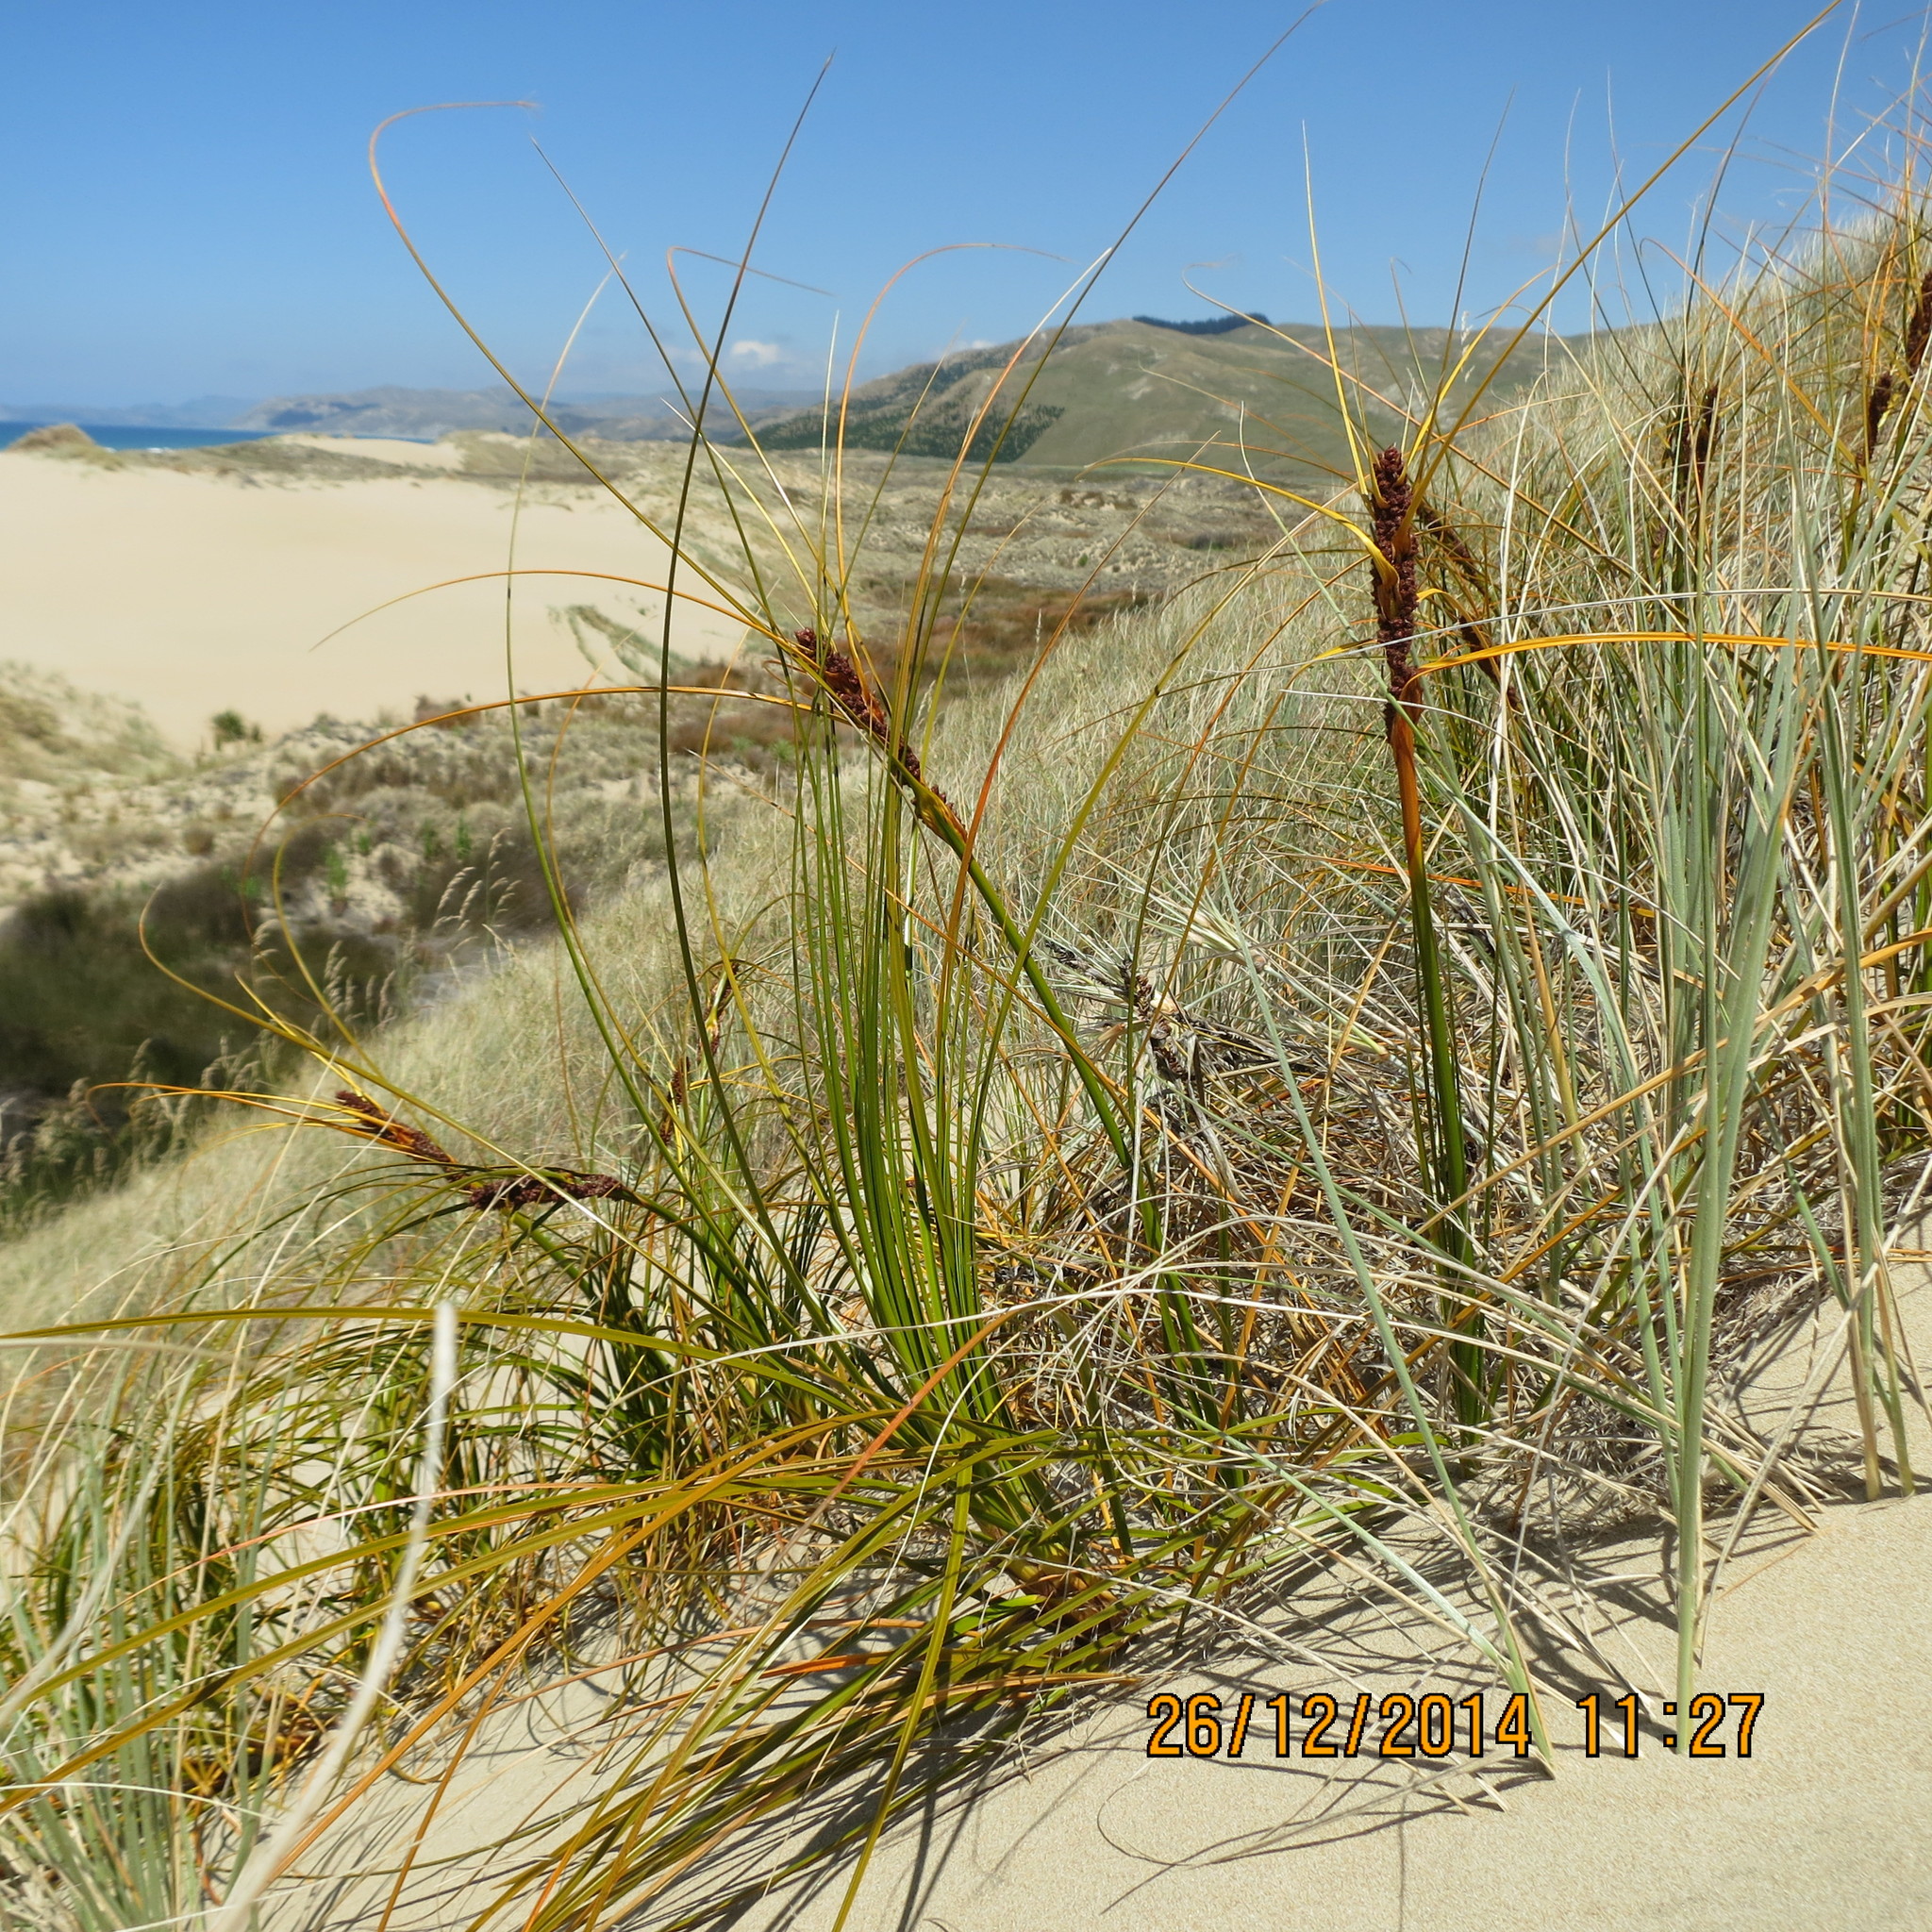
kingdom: Plantae
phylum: Tracheophyta
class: Liliopsida
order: Poales
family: Cyperaceae
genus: Ficinia
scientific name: Ficinia spiralis
